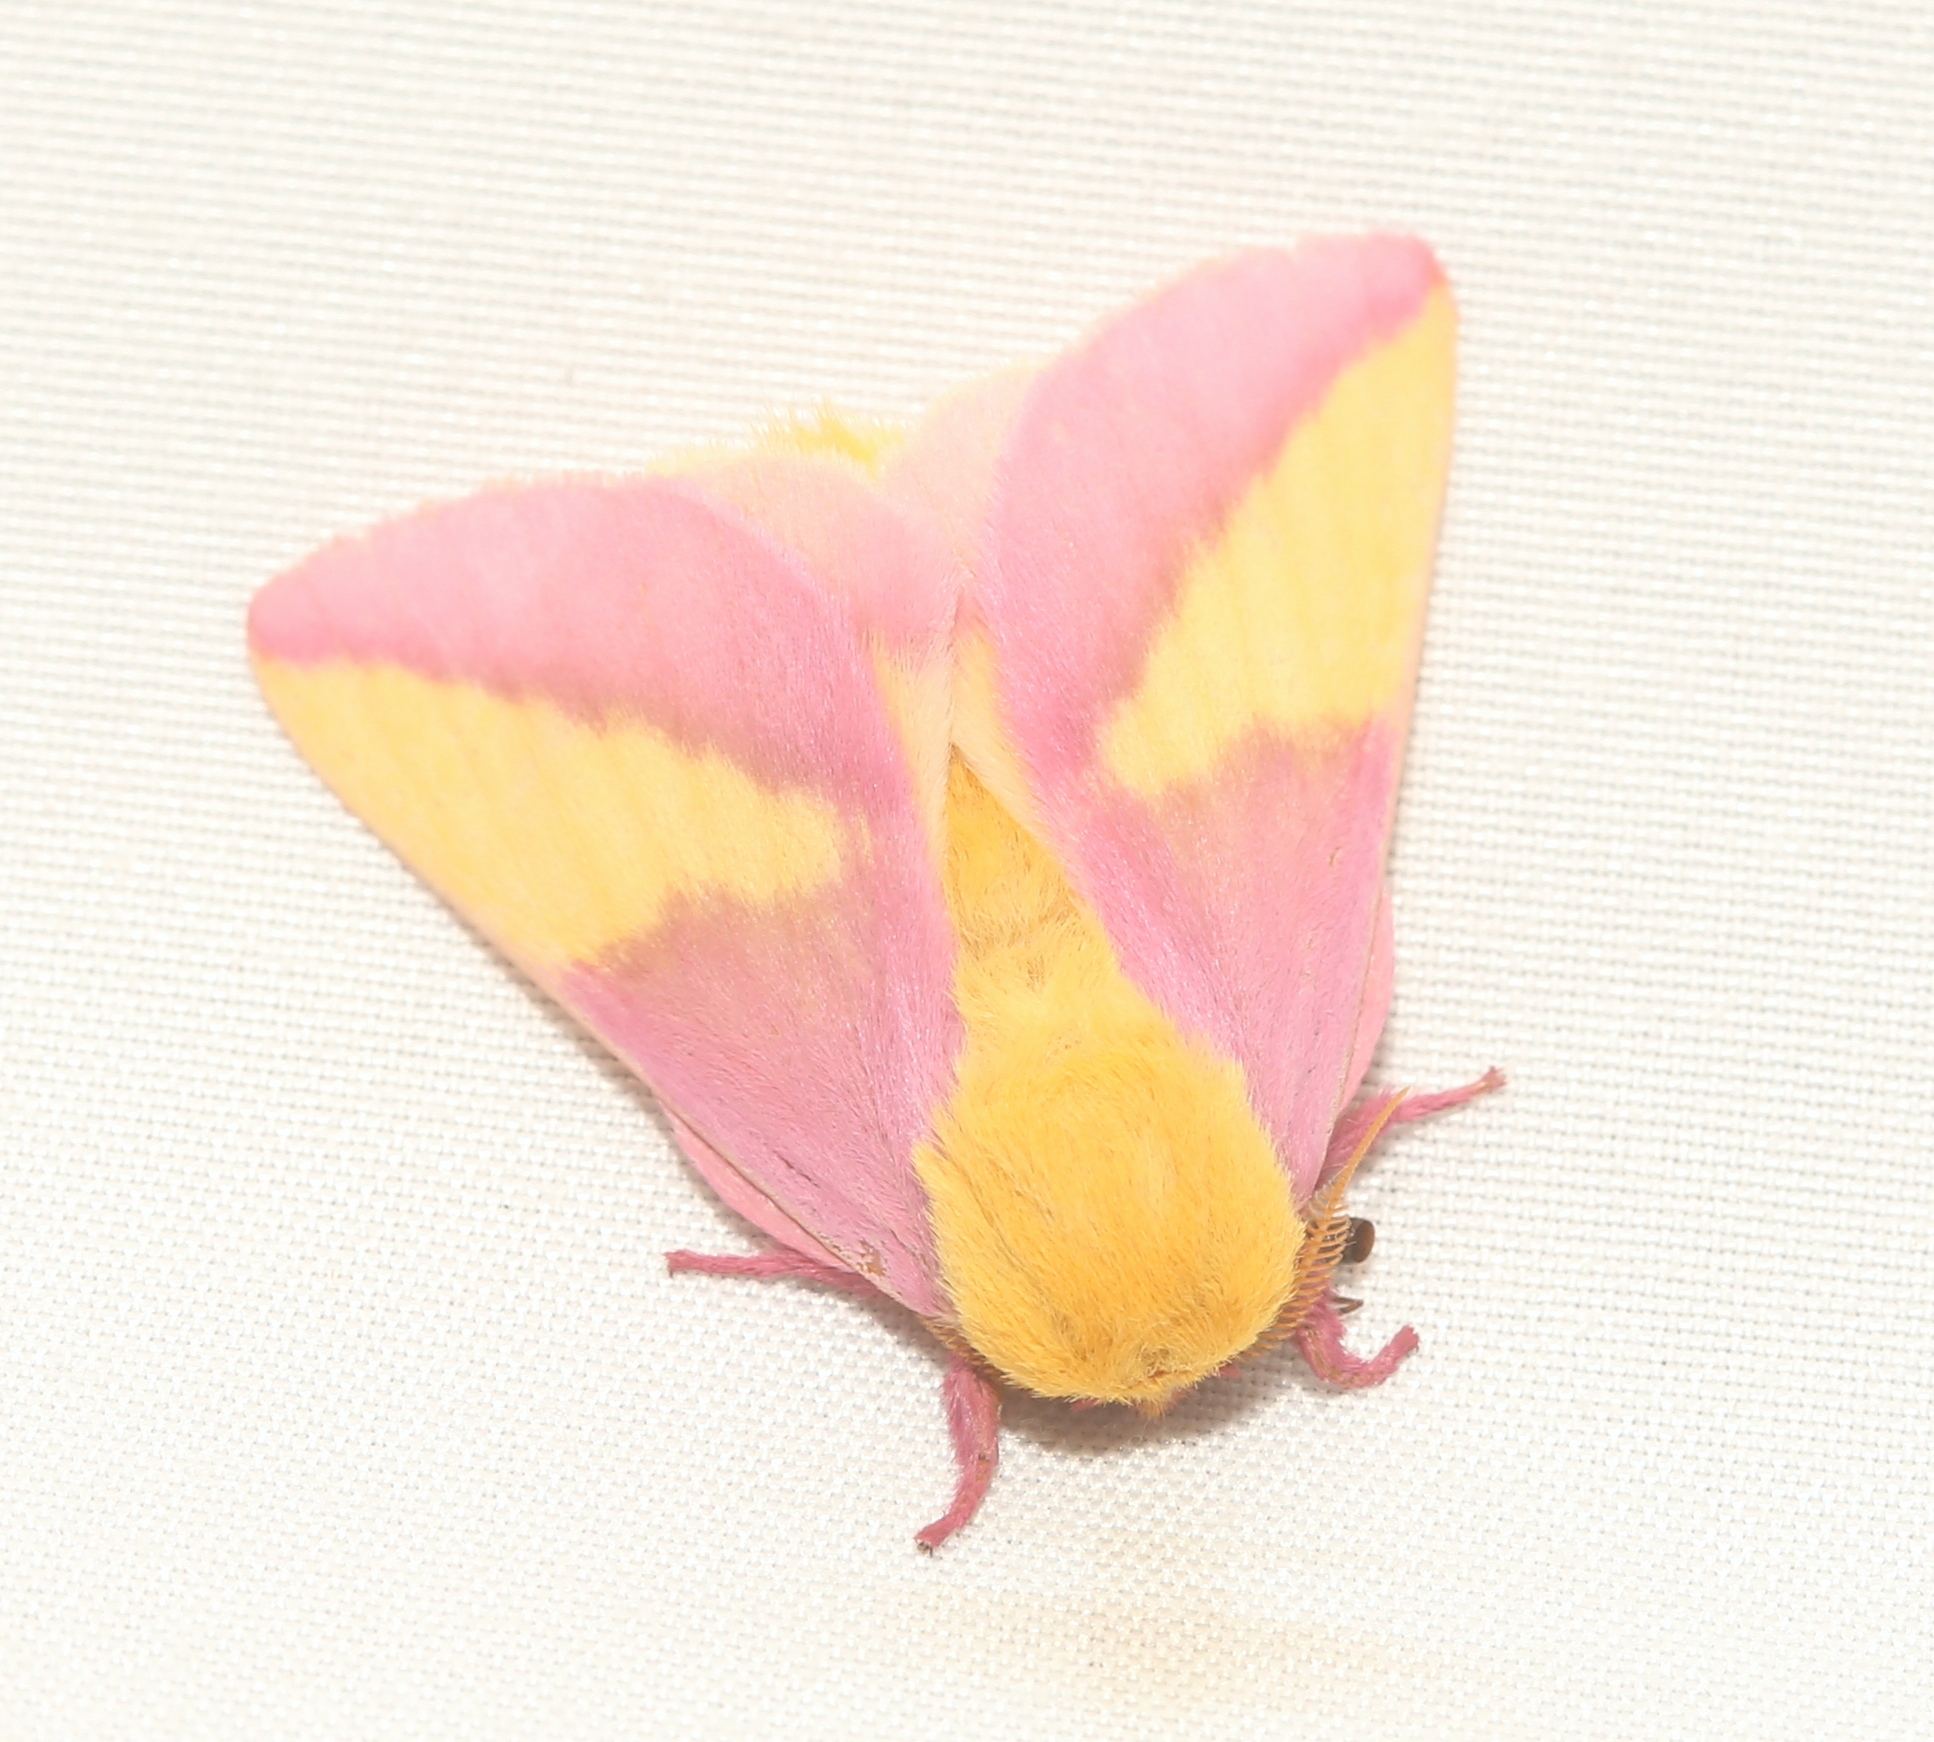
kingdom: Animalia
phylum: Arthropoda
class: Insecta
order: Lepidoptera
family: Saturniidae
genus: Dryocampa
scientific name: Dryocampa rubicunda
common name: Rosy maple moth
